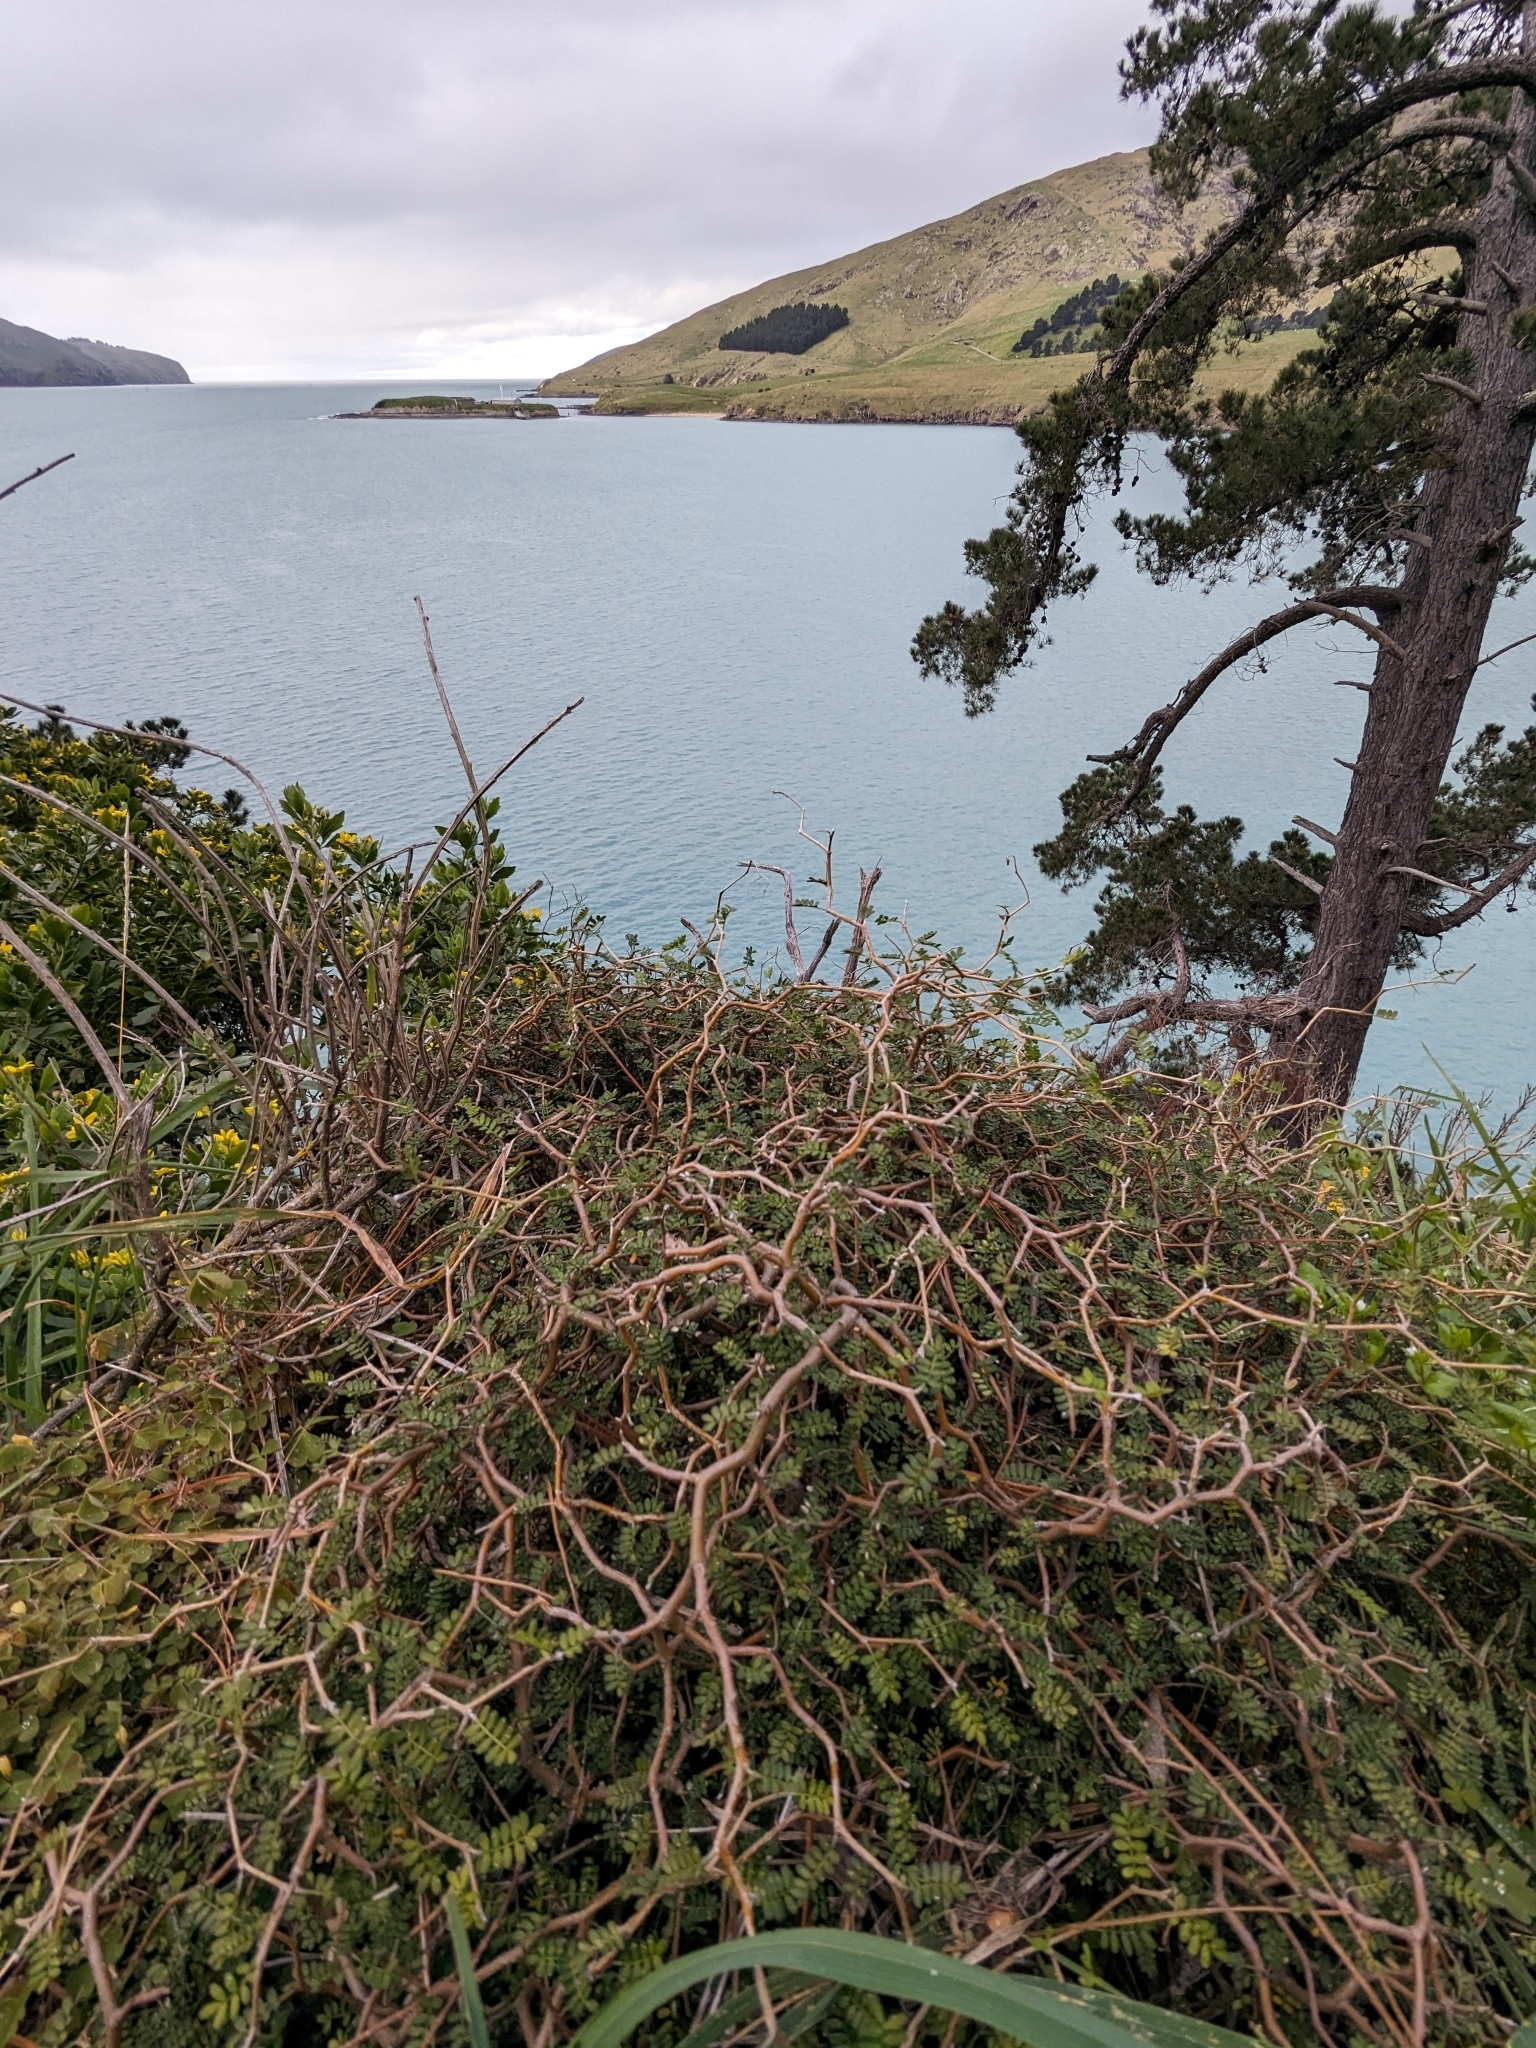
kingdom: Plantae
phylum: Tracheophyta
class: Magnoliopsida
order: Fabales
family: Fabaceae
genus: Sophora
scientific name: Sophora prostrata
